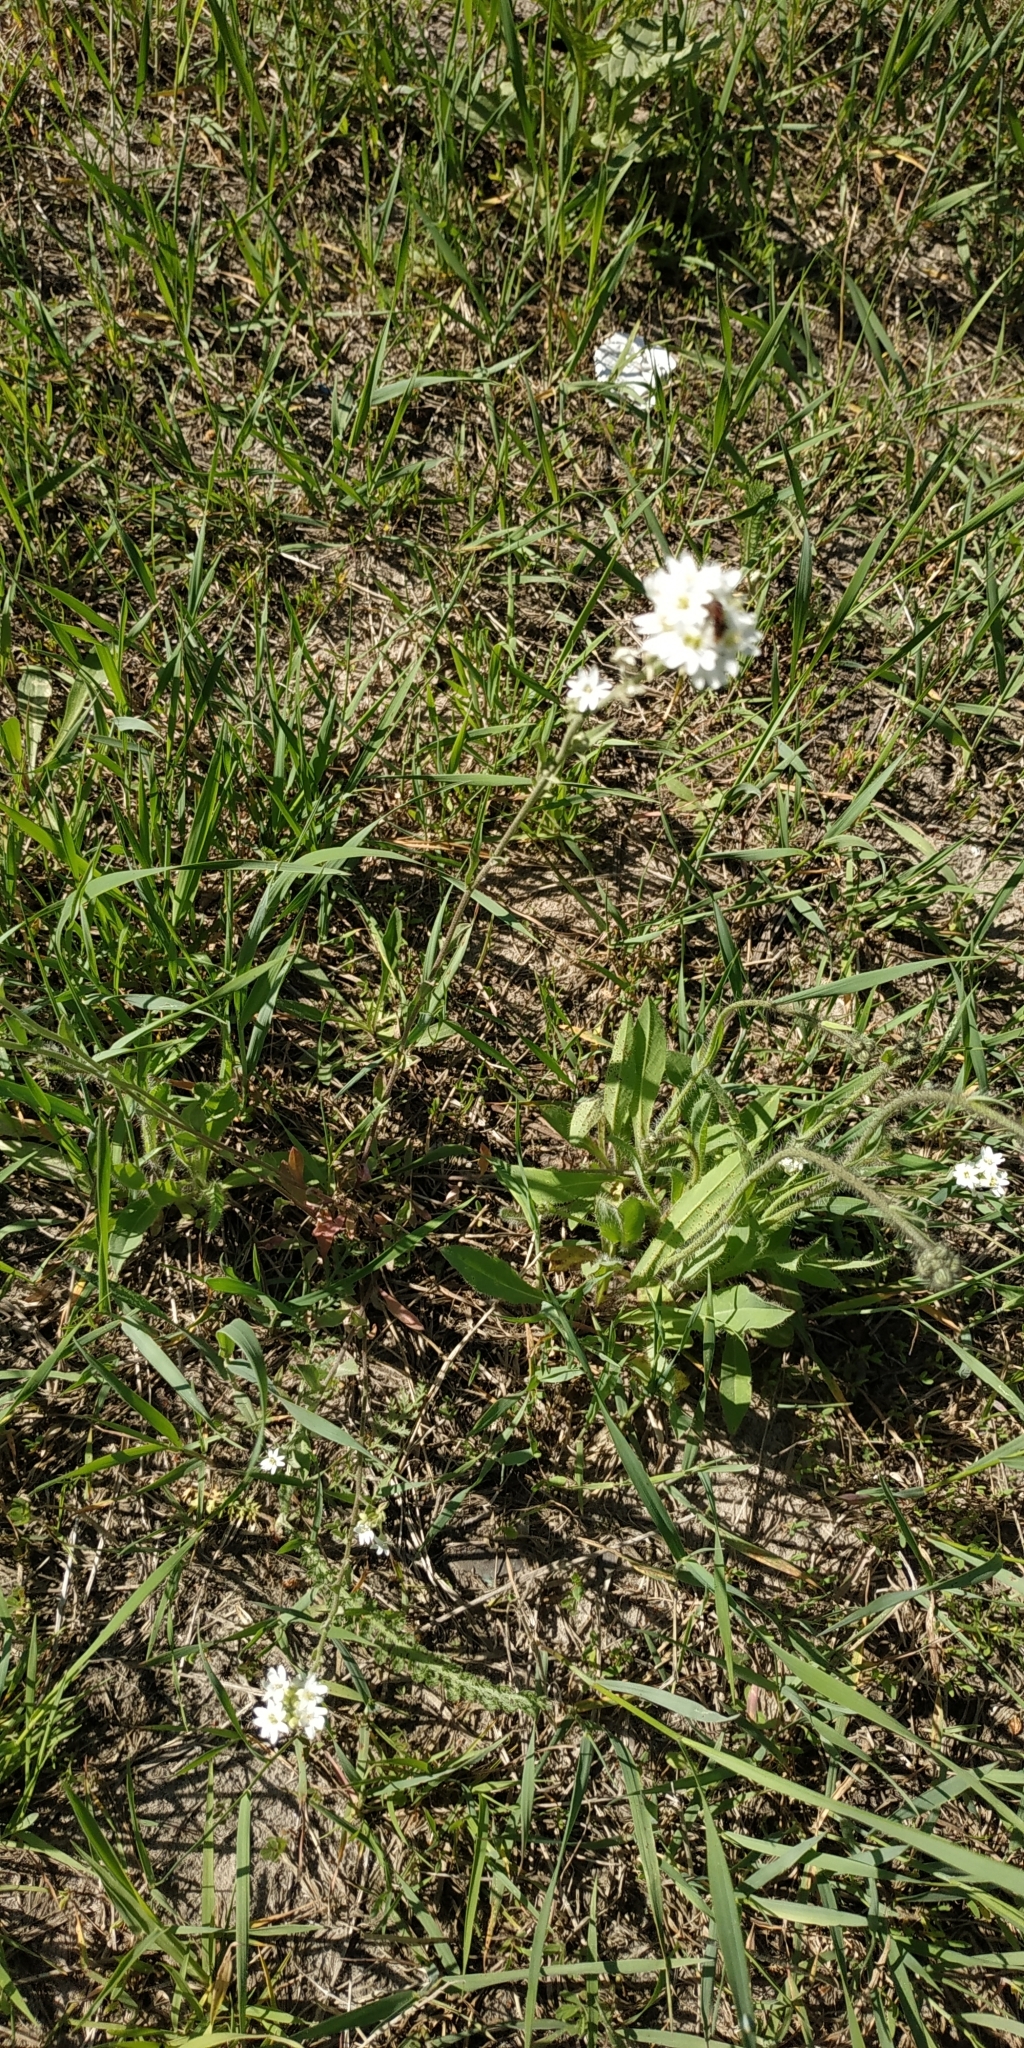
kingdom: Plantae
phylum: Tracheophyta
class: Magnoliopsida
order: Brassicales
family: Brassicaceae
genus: Berteroa
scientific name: Berteroa incana
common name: Hoary alison
